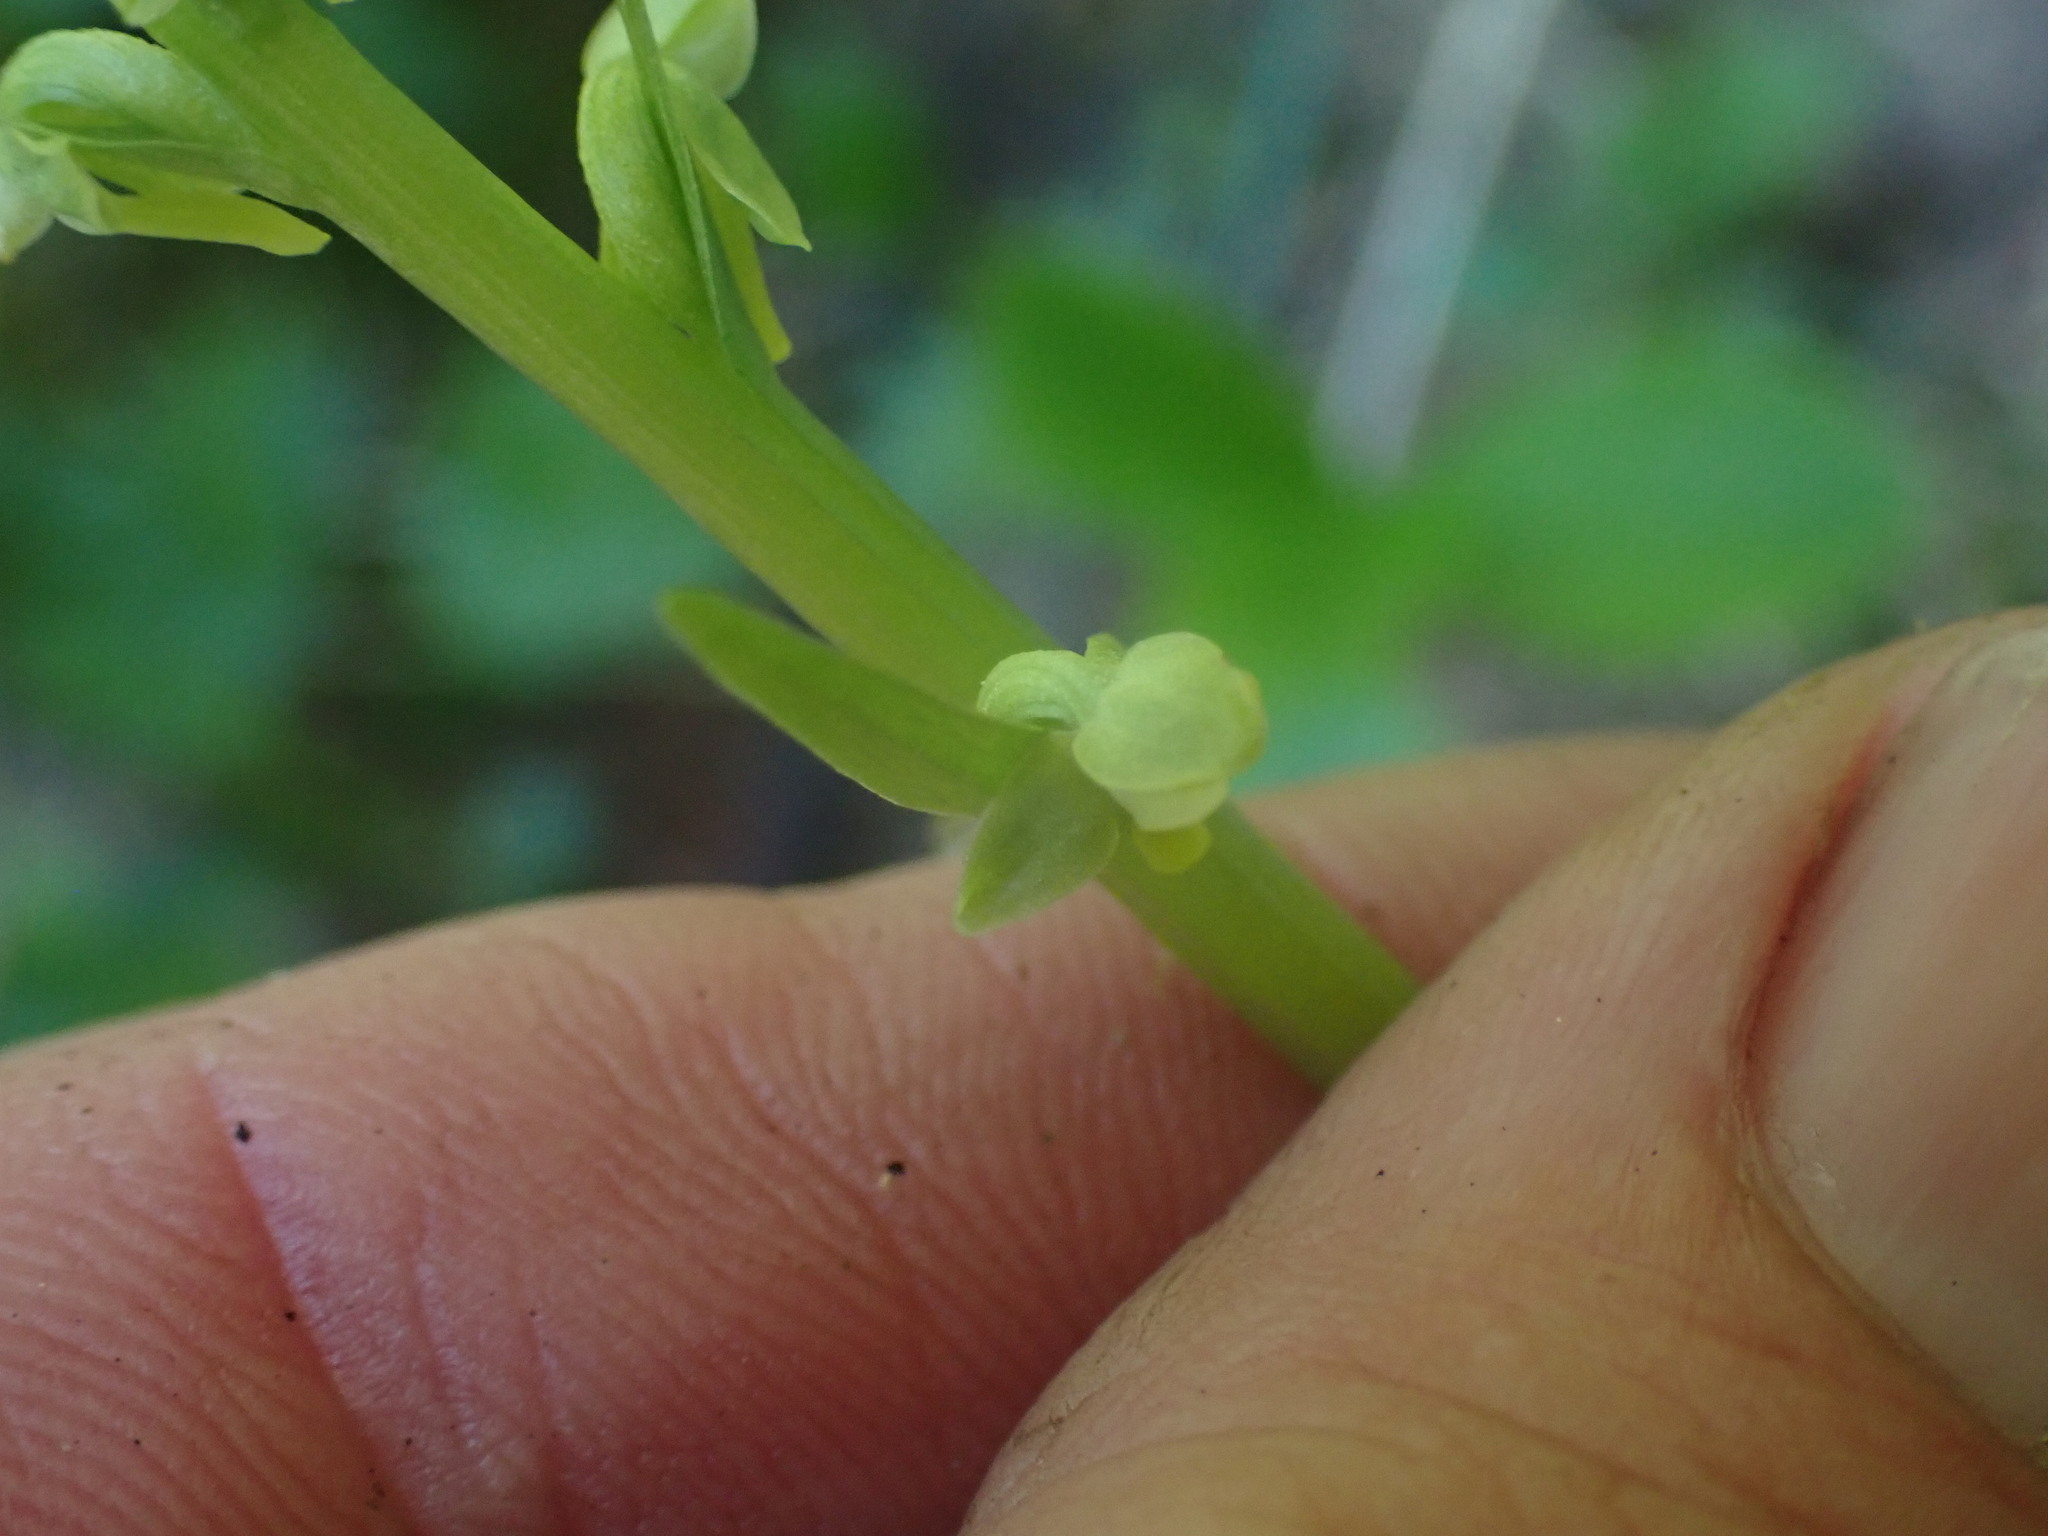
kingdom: Plantae
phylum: Tracheophyta
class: Liliopsida
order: Asparagales
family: Orchidaceae
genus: Platanthera
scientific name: Platanthera stricta
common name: Slender bog orchid
